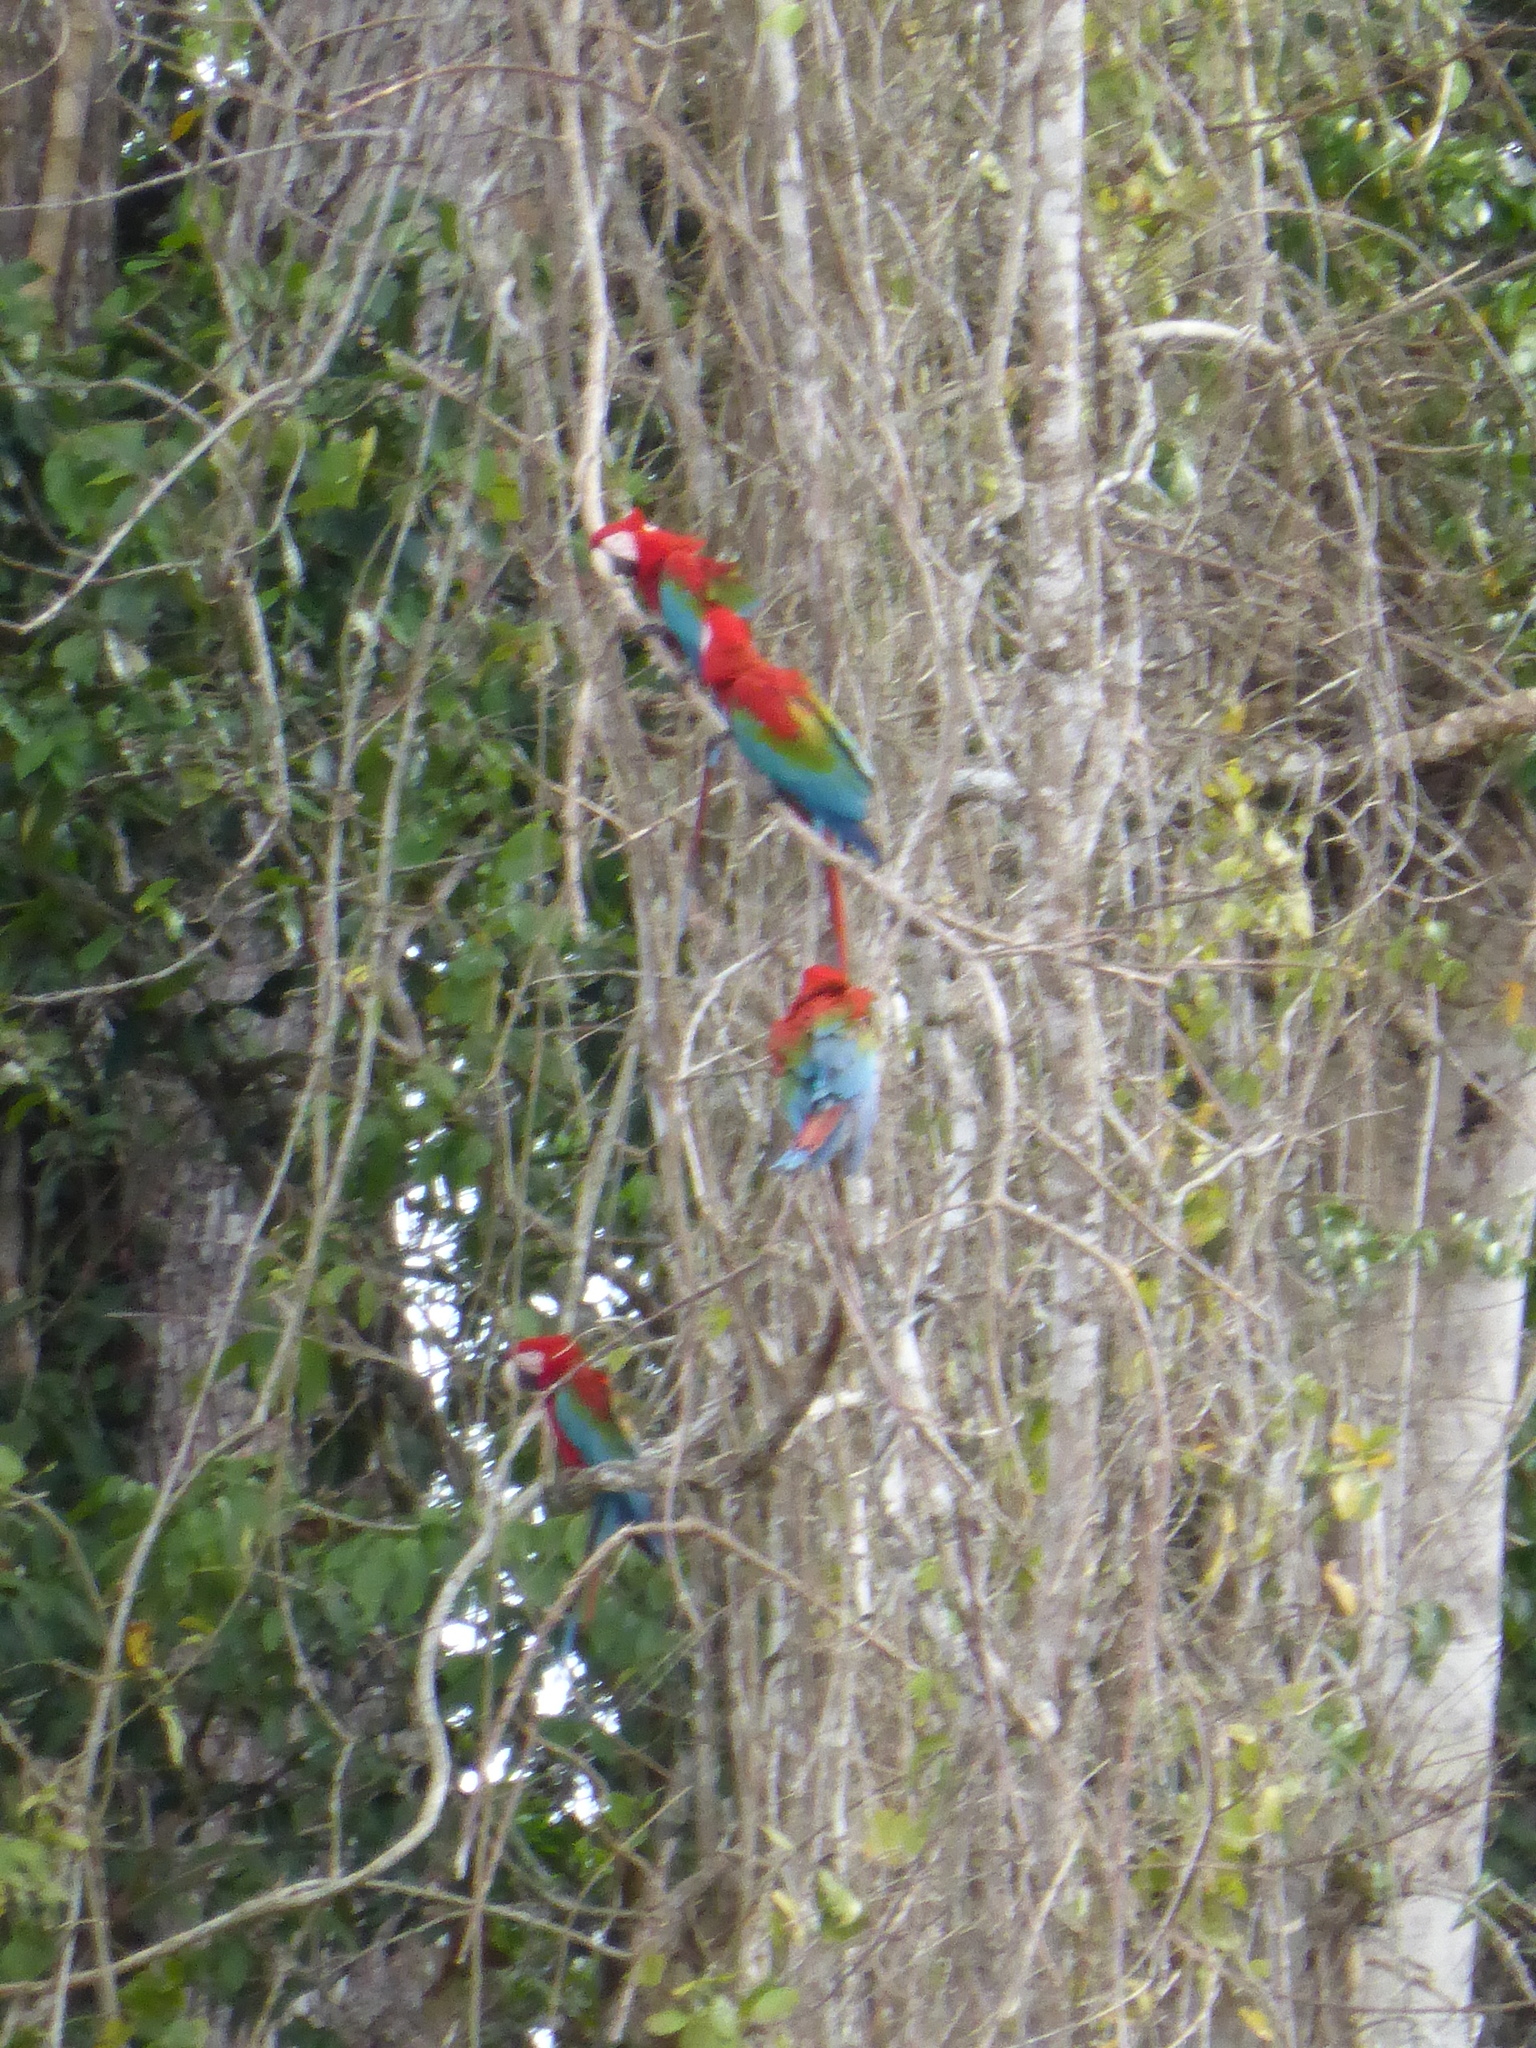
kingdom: Animalia
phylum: Chordata
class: Aves
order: Psittaciformes
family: Psittacidae
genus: Ara
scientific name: Ara chloropterus
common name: Red-and-green macaw
